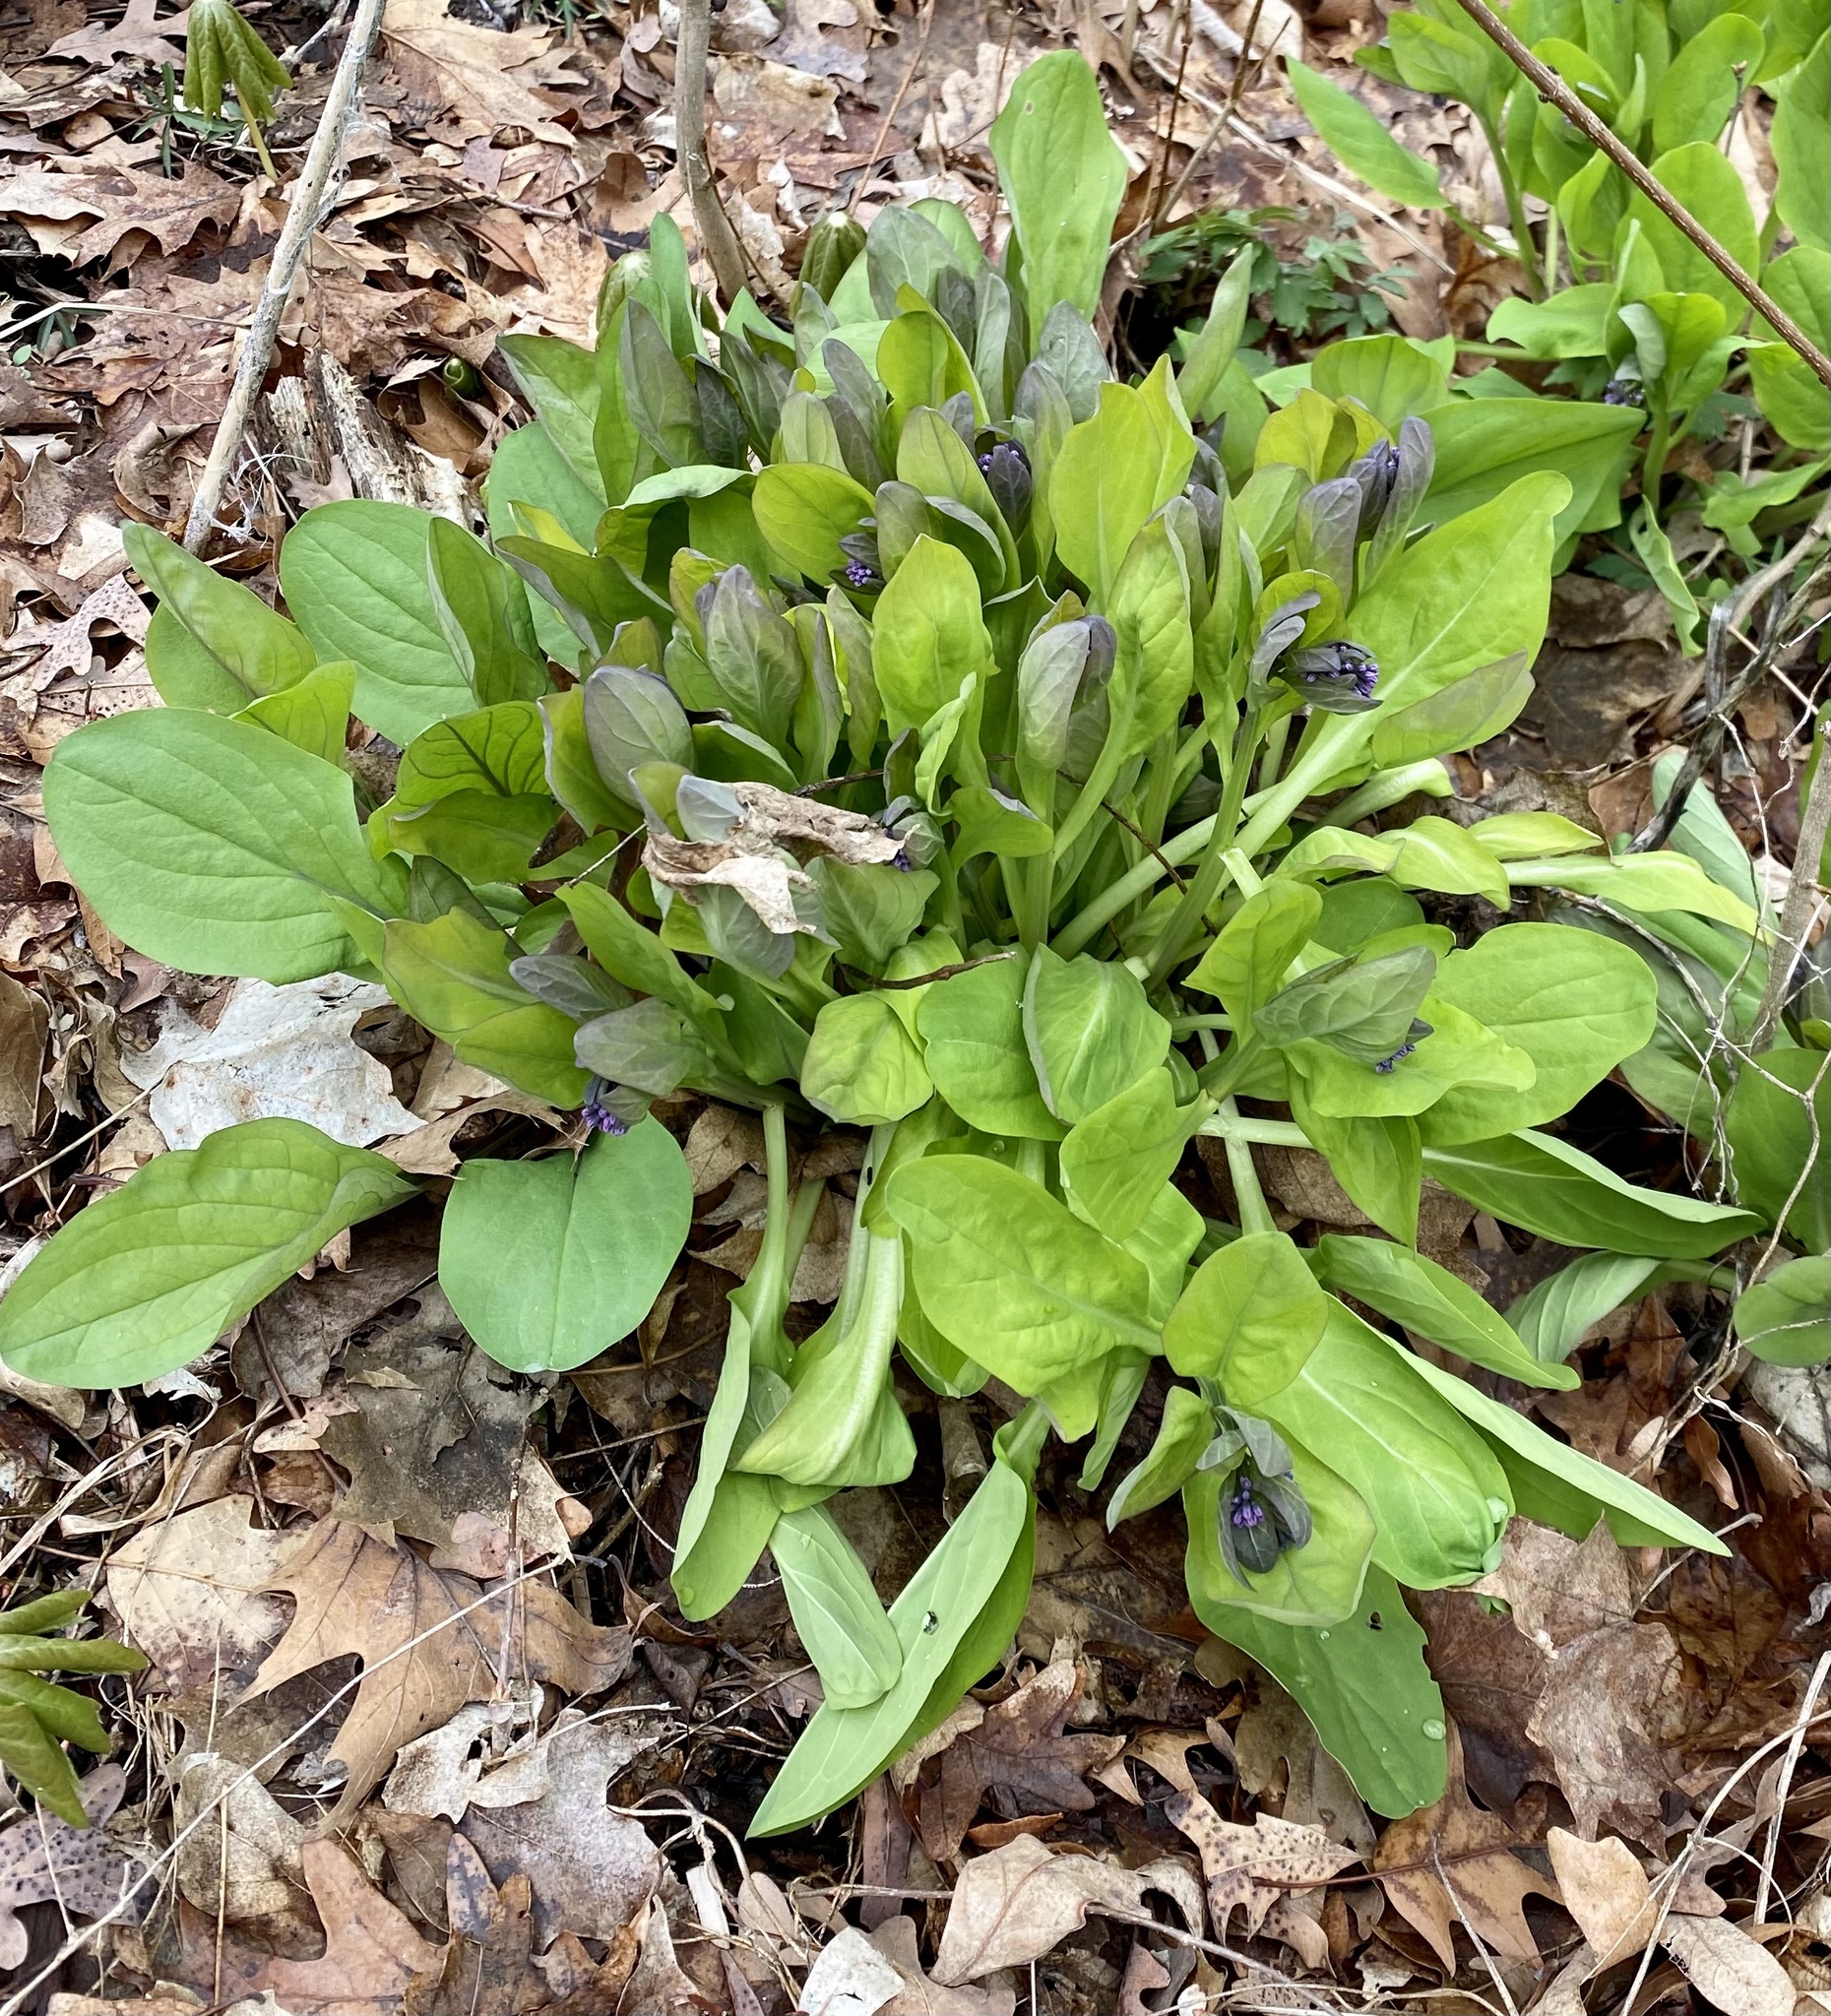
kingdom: Plantae
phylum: Tracheophyta
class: Magnoliopsida
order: Boraginales
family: Boraginaceae
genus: Mertensia
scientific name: Mertensia virginica
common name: Virginia bluebells
